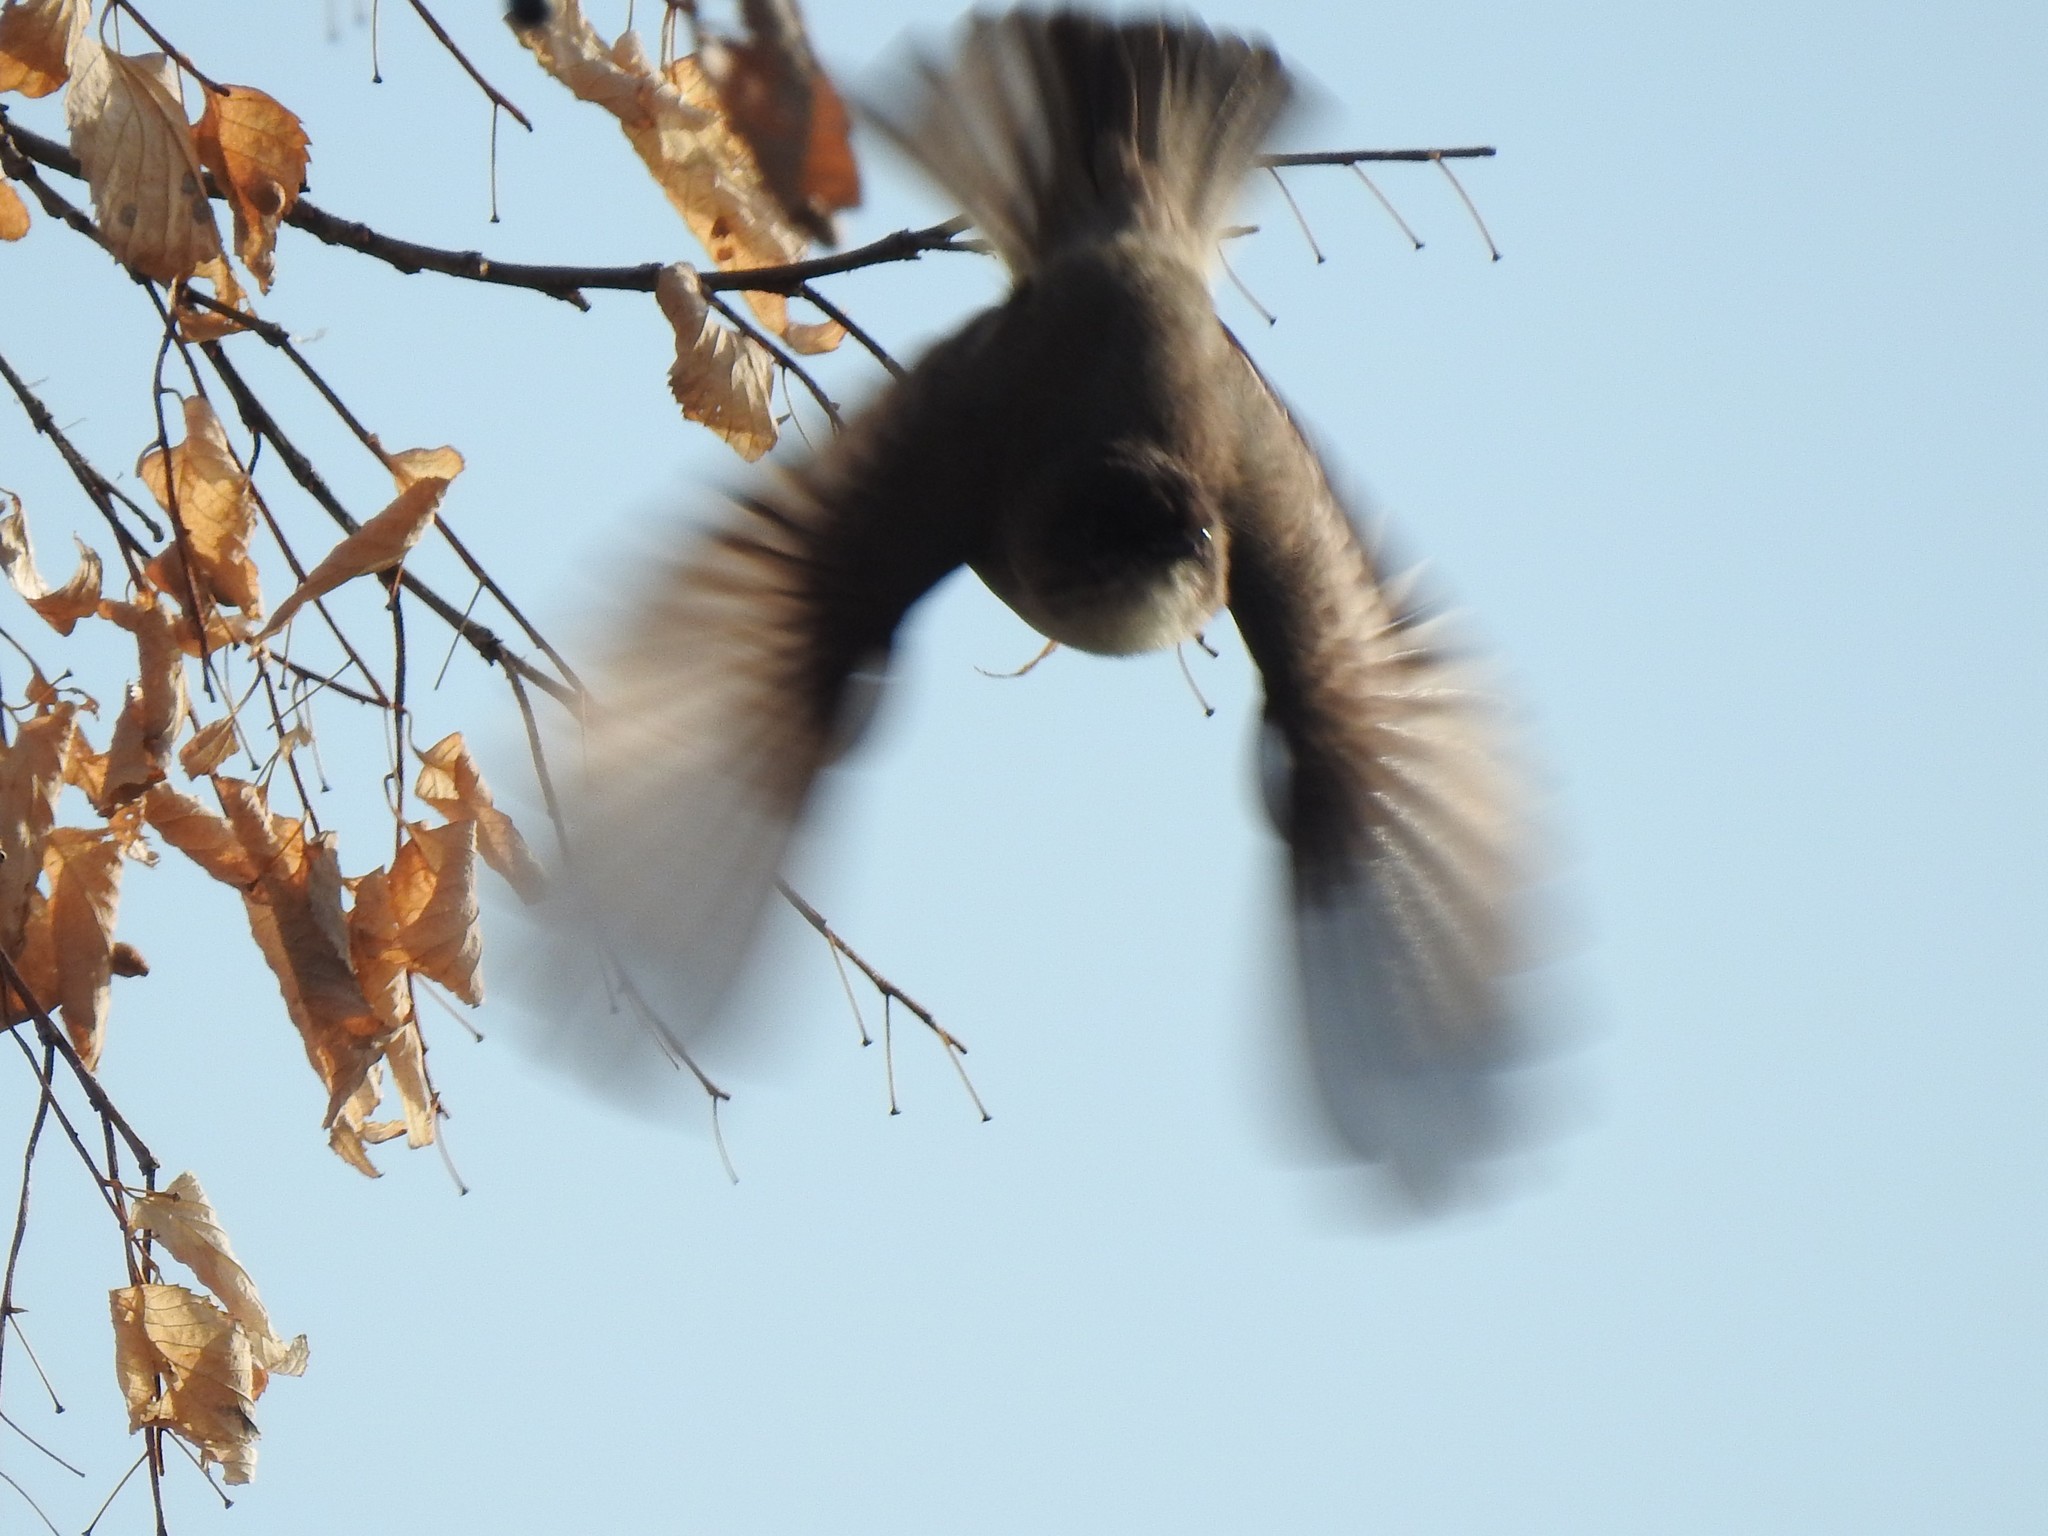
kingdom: Animalia
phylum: Chordata
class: Aves
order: Passeriformes
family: Tyrannidae
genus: Sayornis
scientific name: Sayornis phoebe
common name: Eastern phoebe
